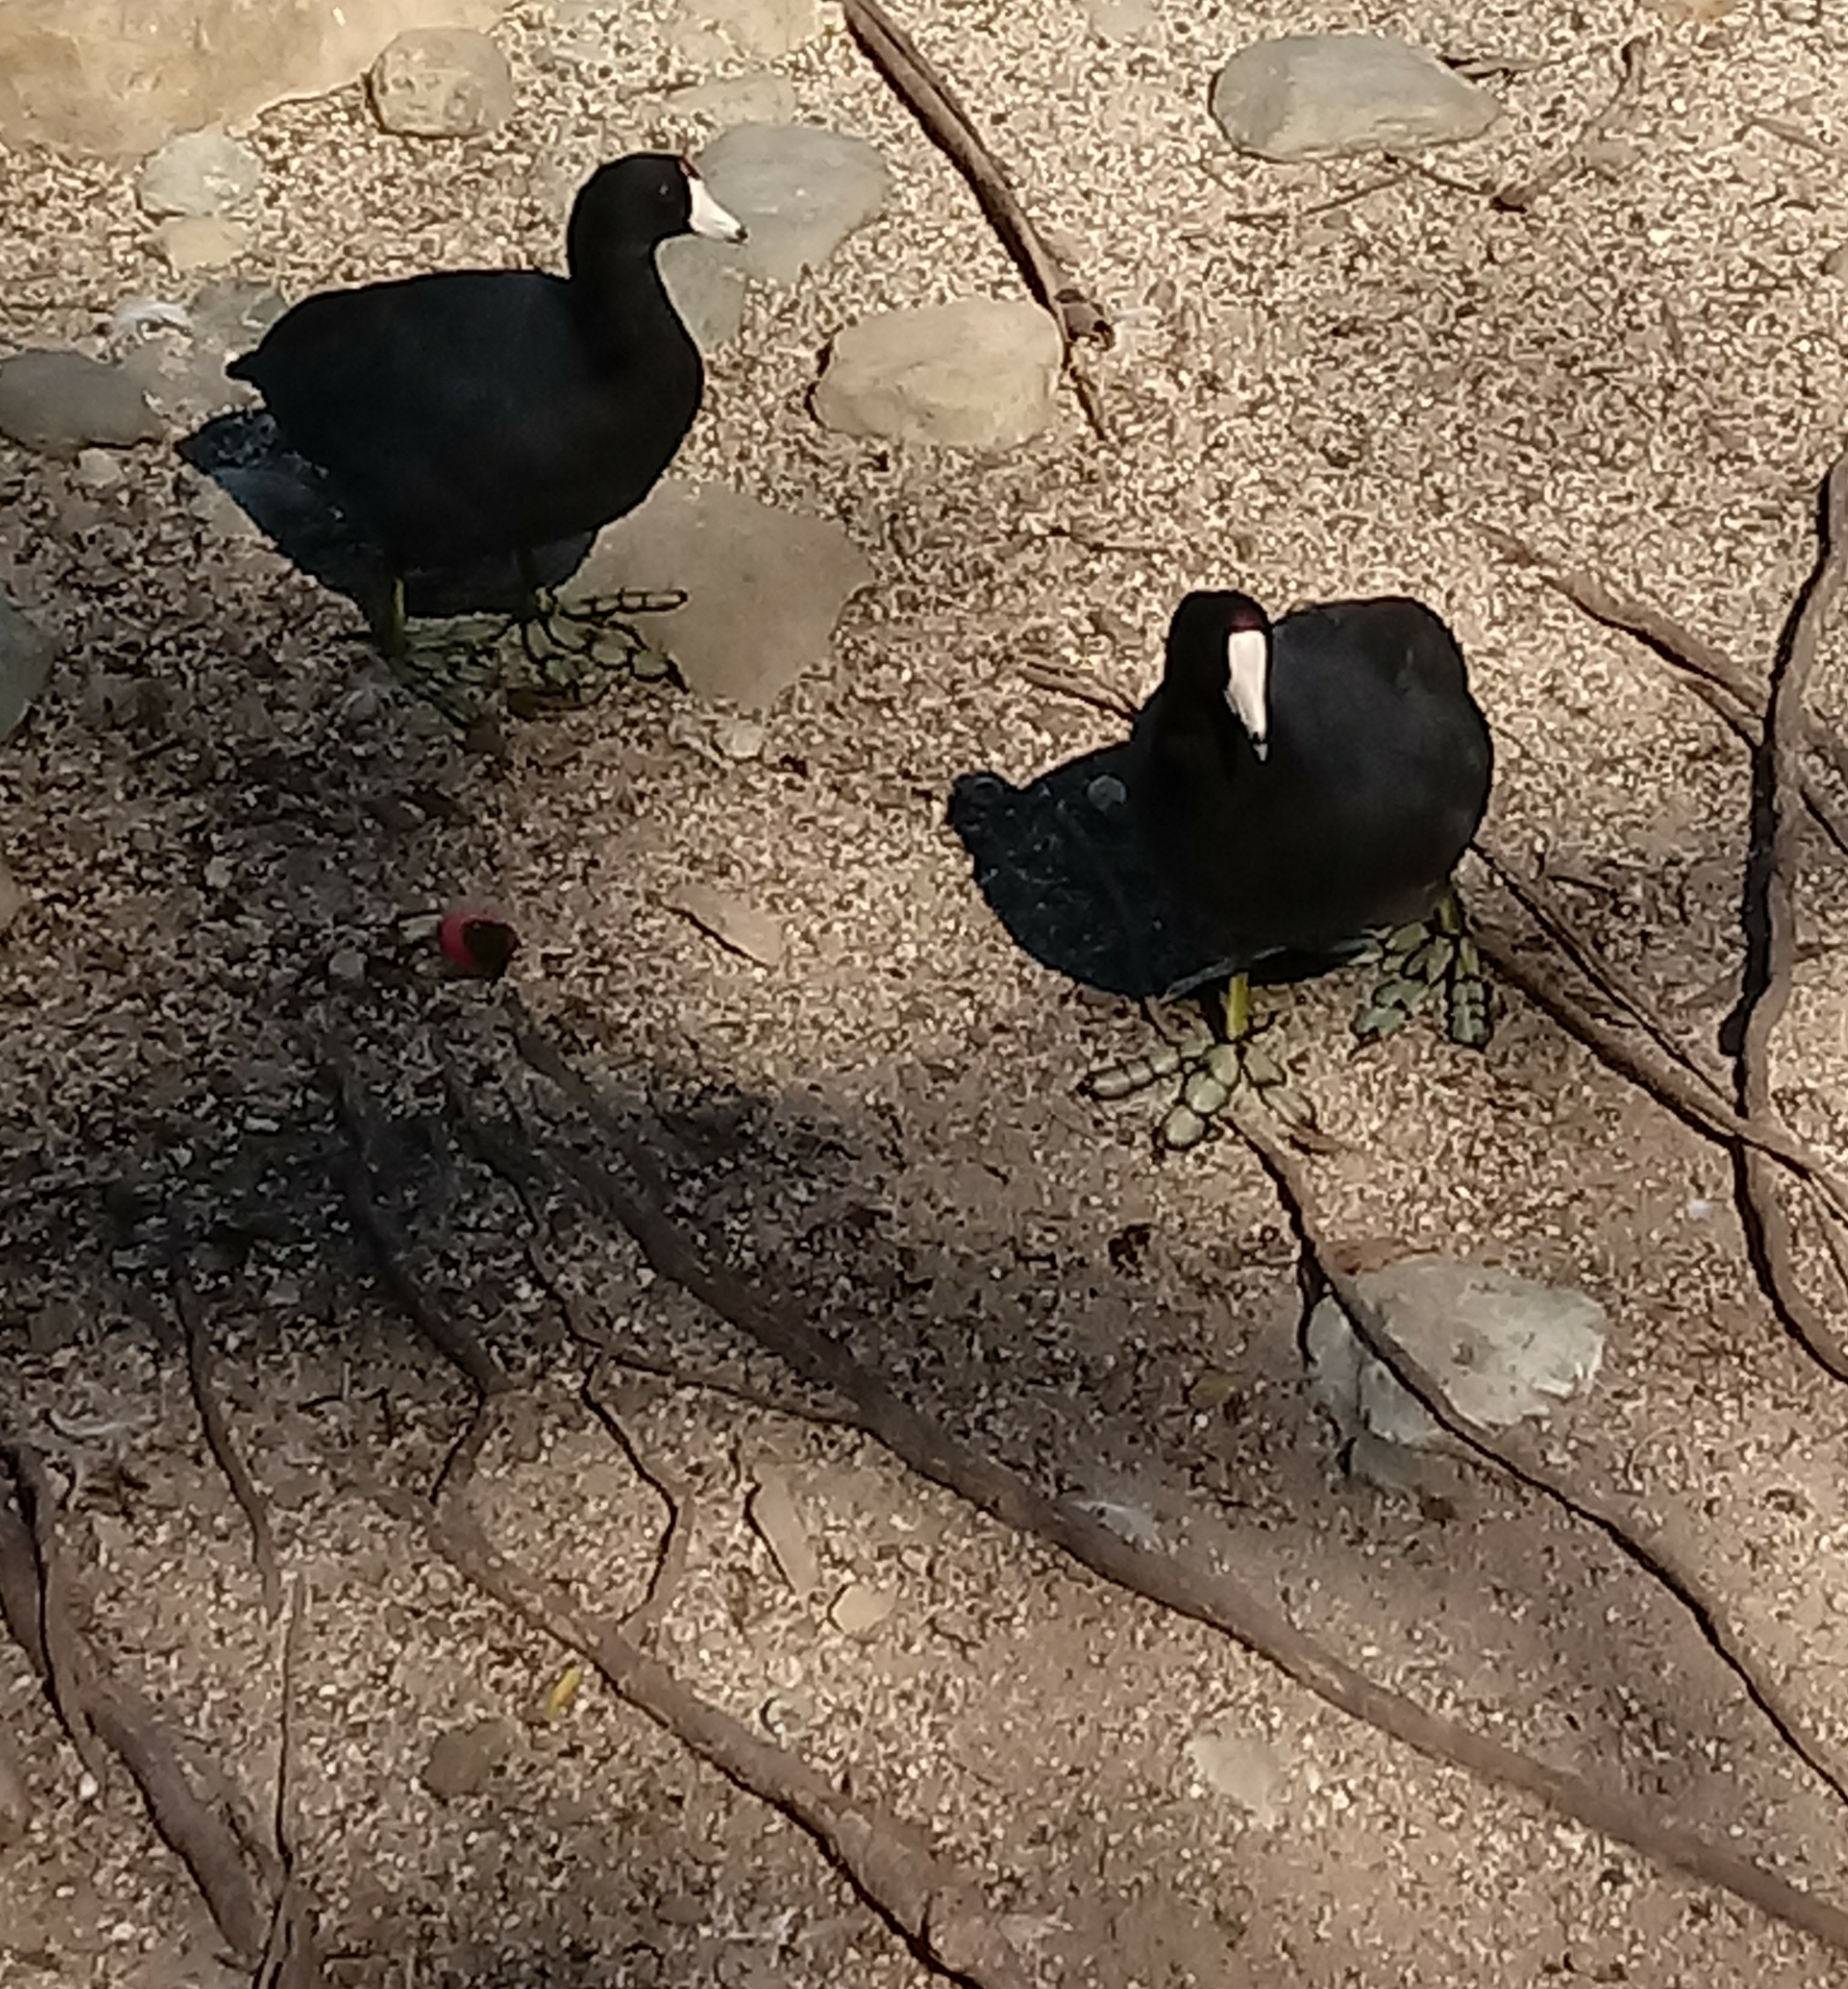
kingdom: Animalia
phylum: Chordata
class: Aves
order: Gruiformes
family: Rallidae
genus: Fulica
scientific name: Fulica americana
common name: American coot
